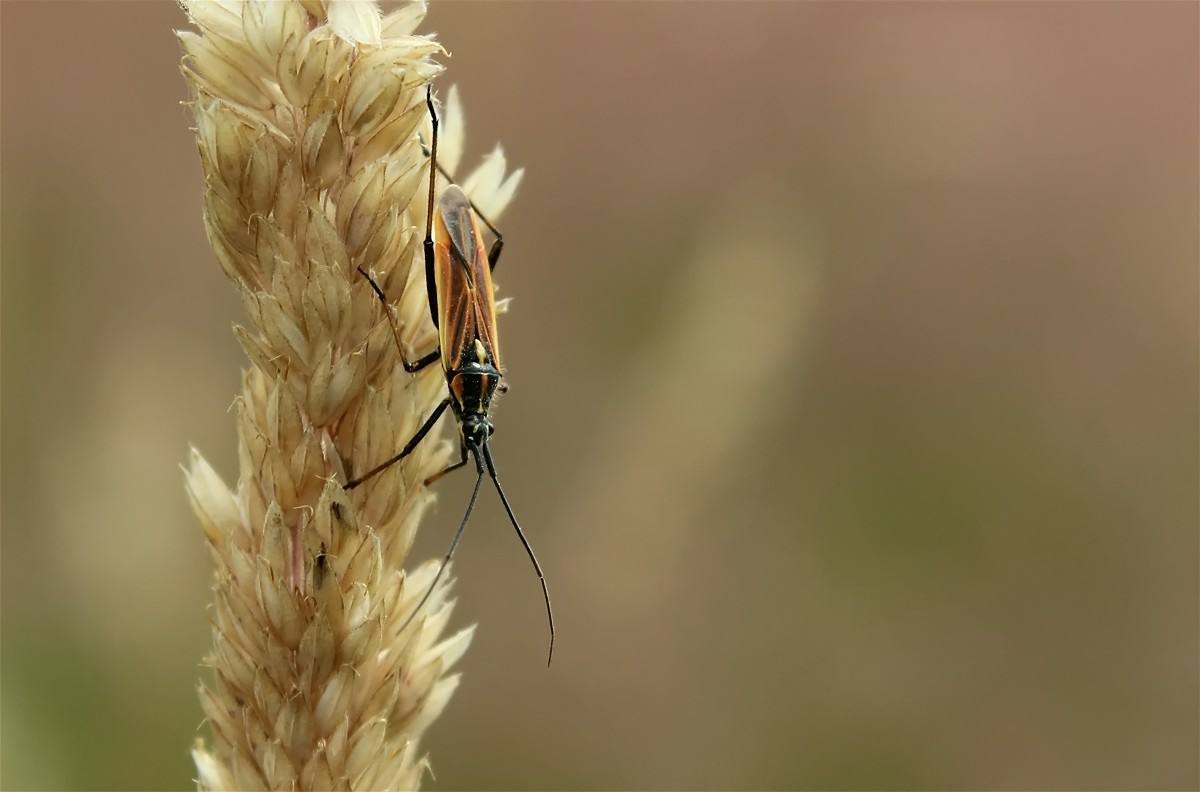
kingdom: Animalia
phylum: Arthropoda
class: Insecta
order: Hemiptera
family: Miridae
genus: Leptopterna
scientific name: Leptopterna dolabrata
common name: Meadow plant bug
